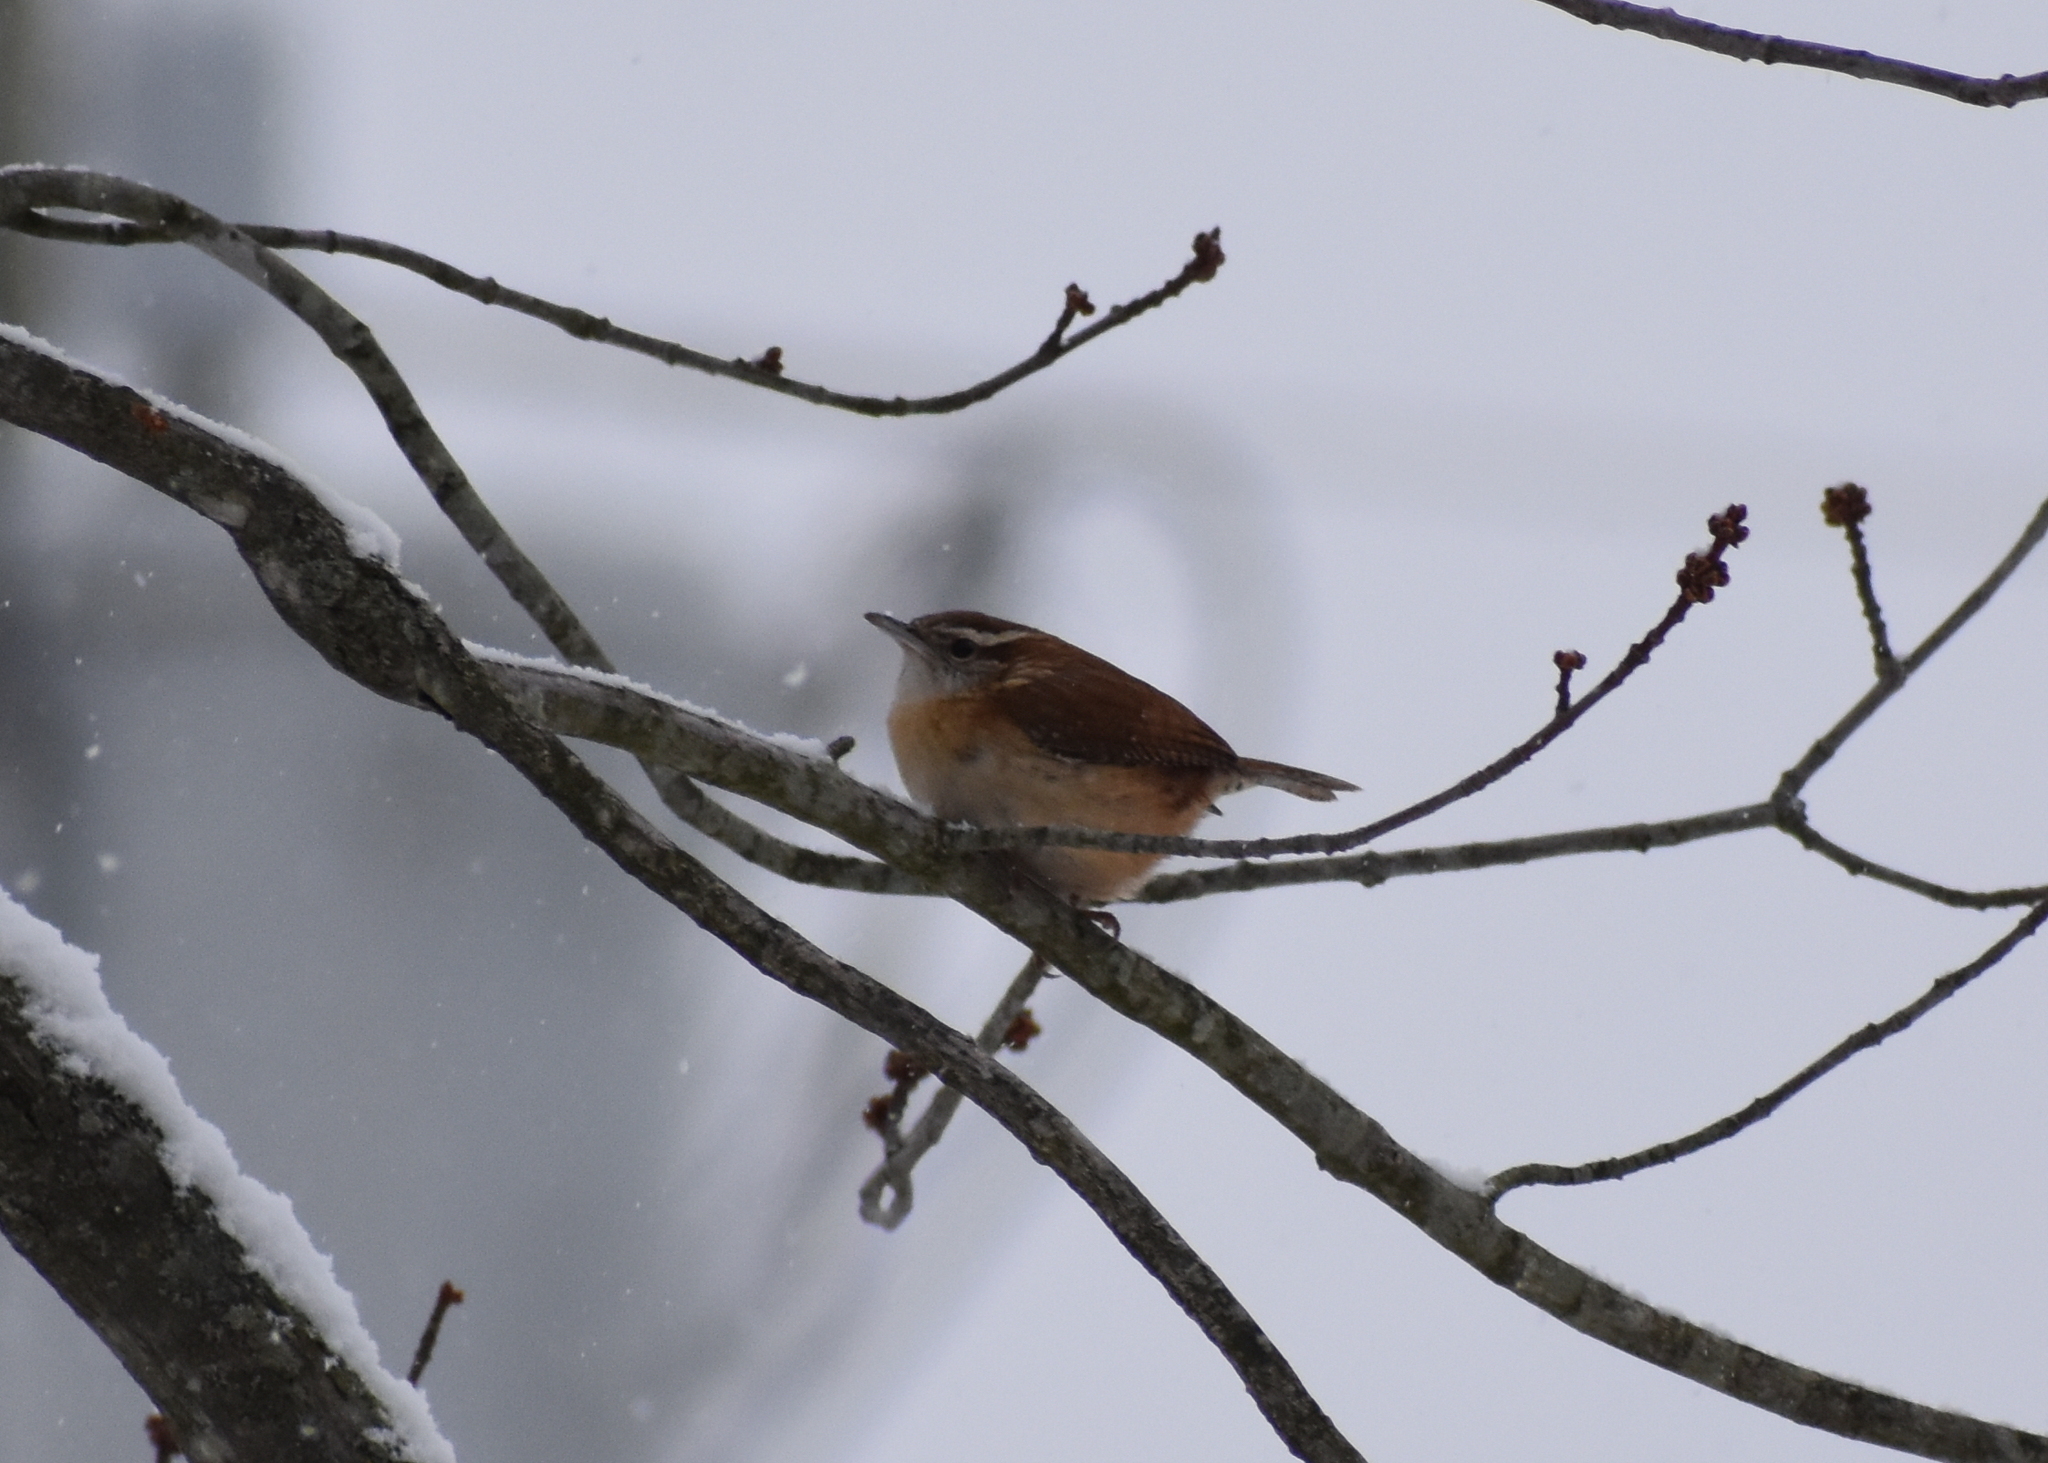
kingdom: Animalia
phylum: Chordata
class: Aves
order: Passeriformes
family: Troglodytidae
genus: Thryothorus
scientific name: Thryothorus ludovicianus
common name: Carolina wren
